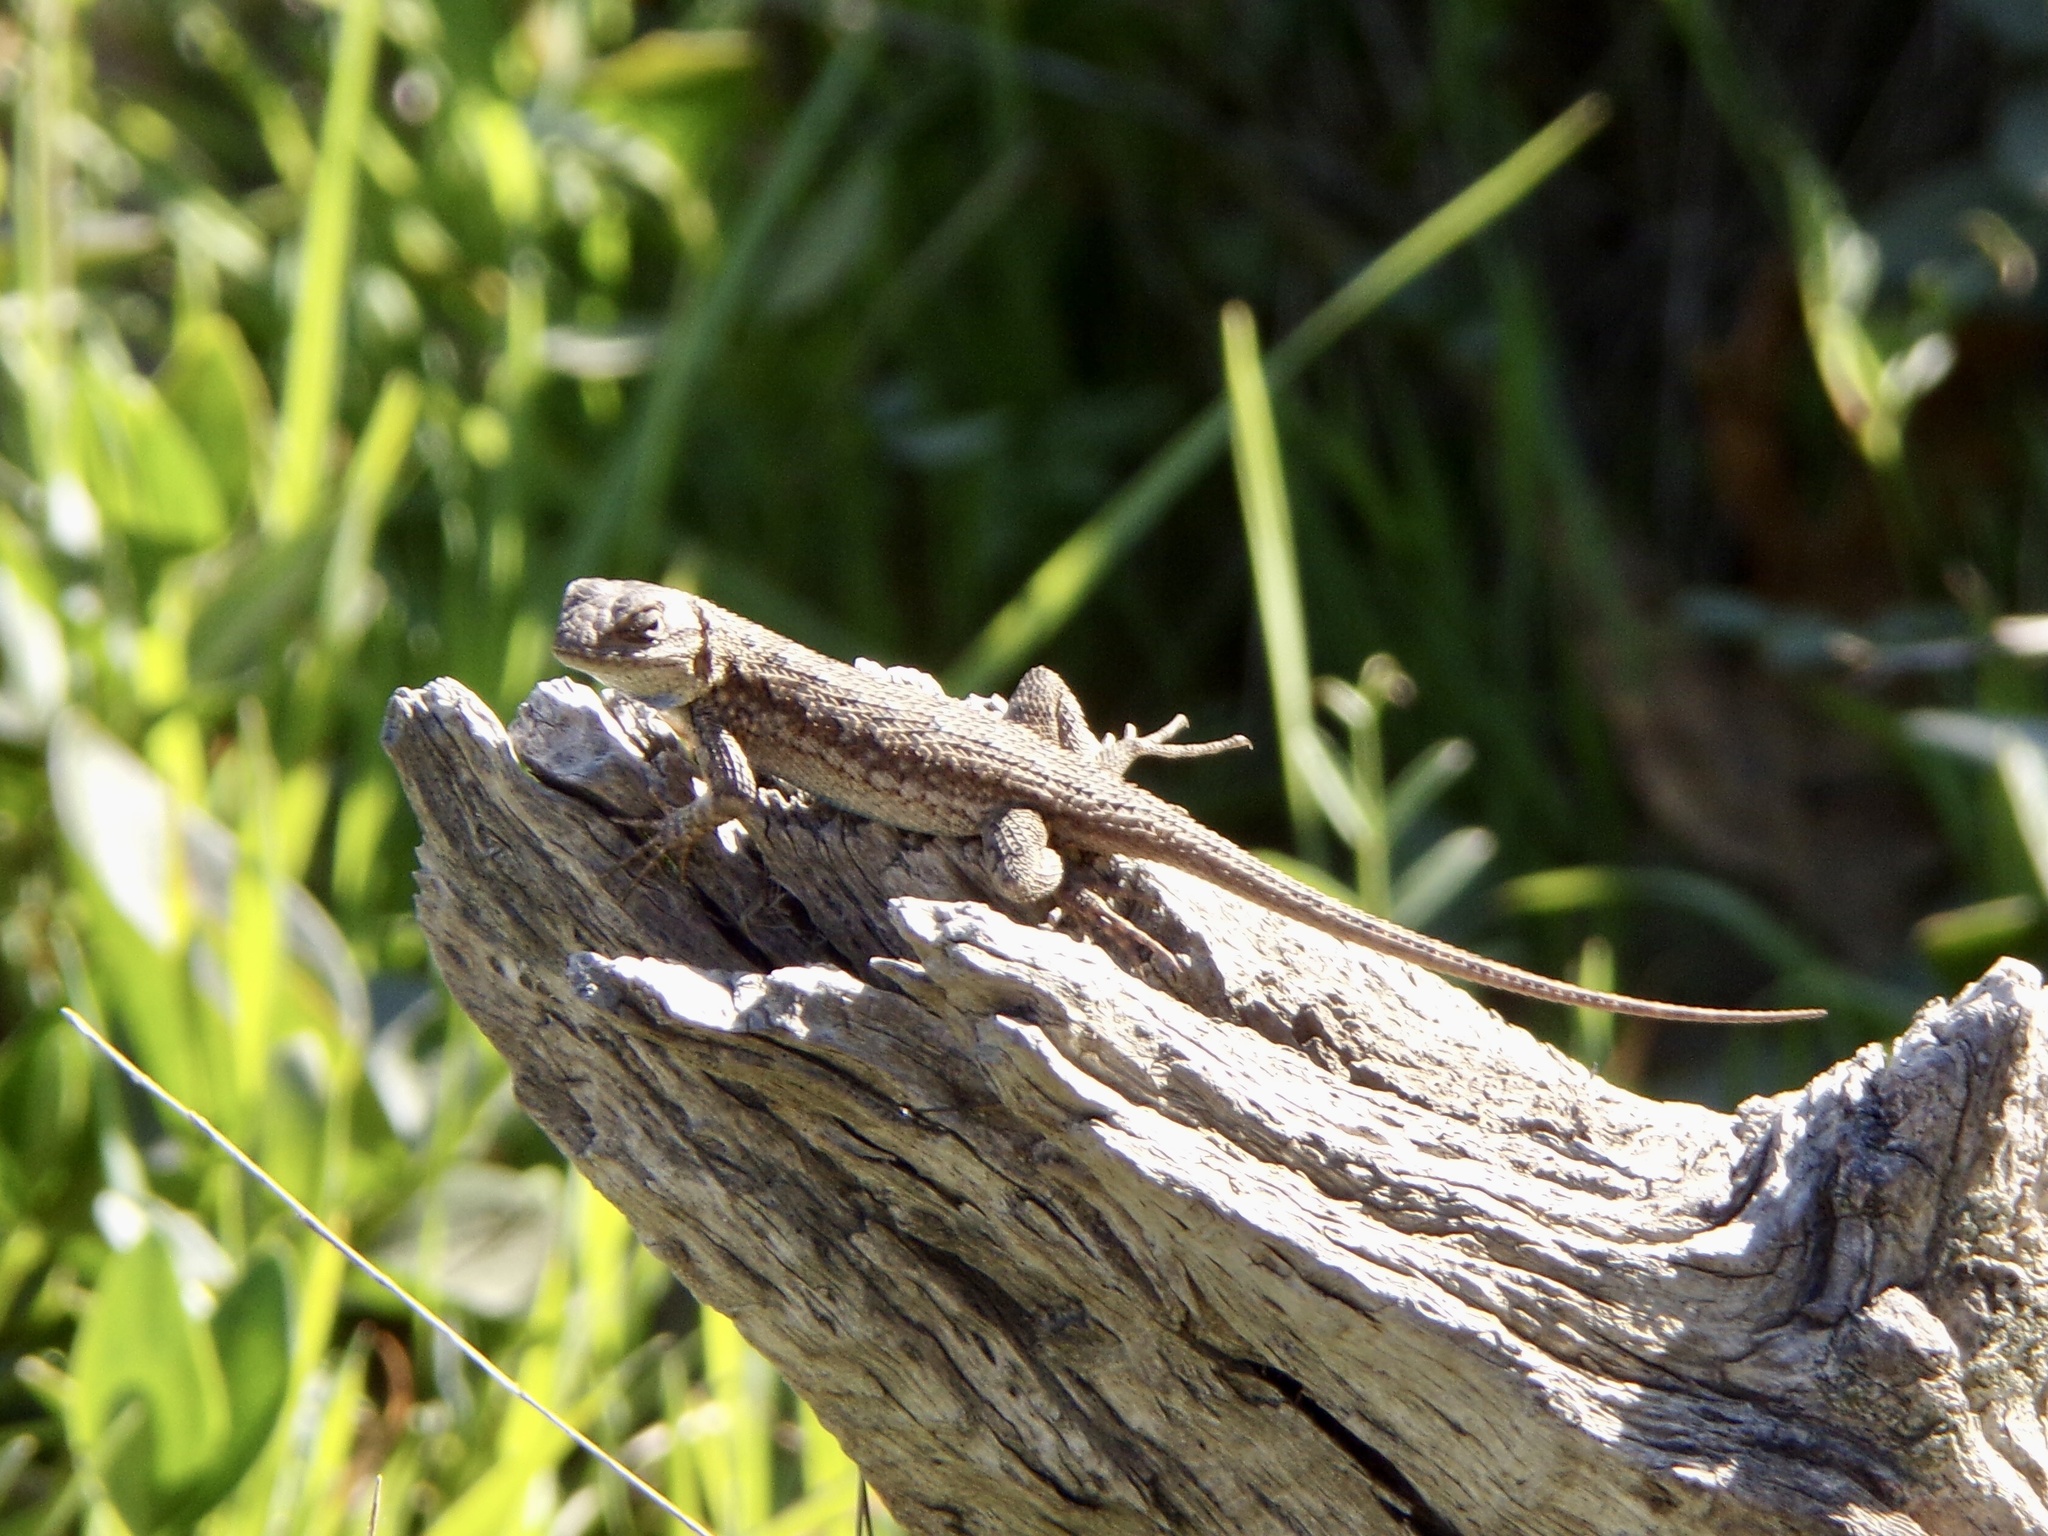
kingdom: Animalia
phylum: Chordata
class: Squamata
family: Phrynosomatidae
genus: Sceloporus
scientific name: Sceloporus occidentalis
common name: Western fence lizard
